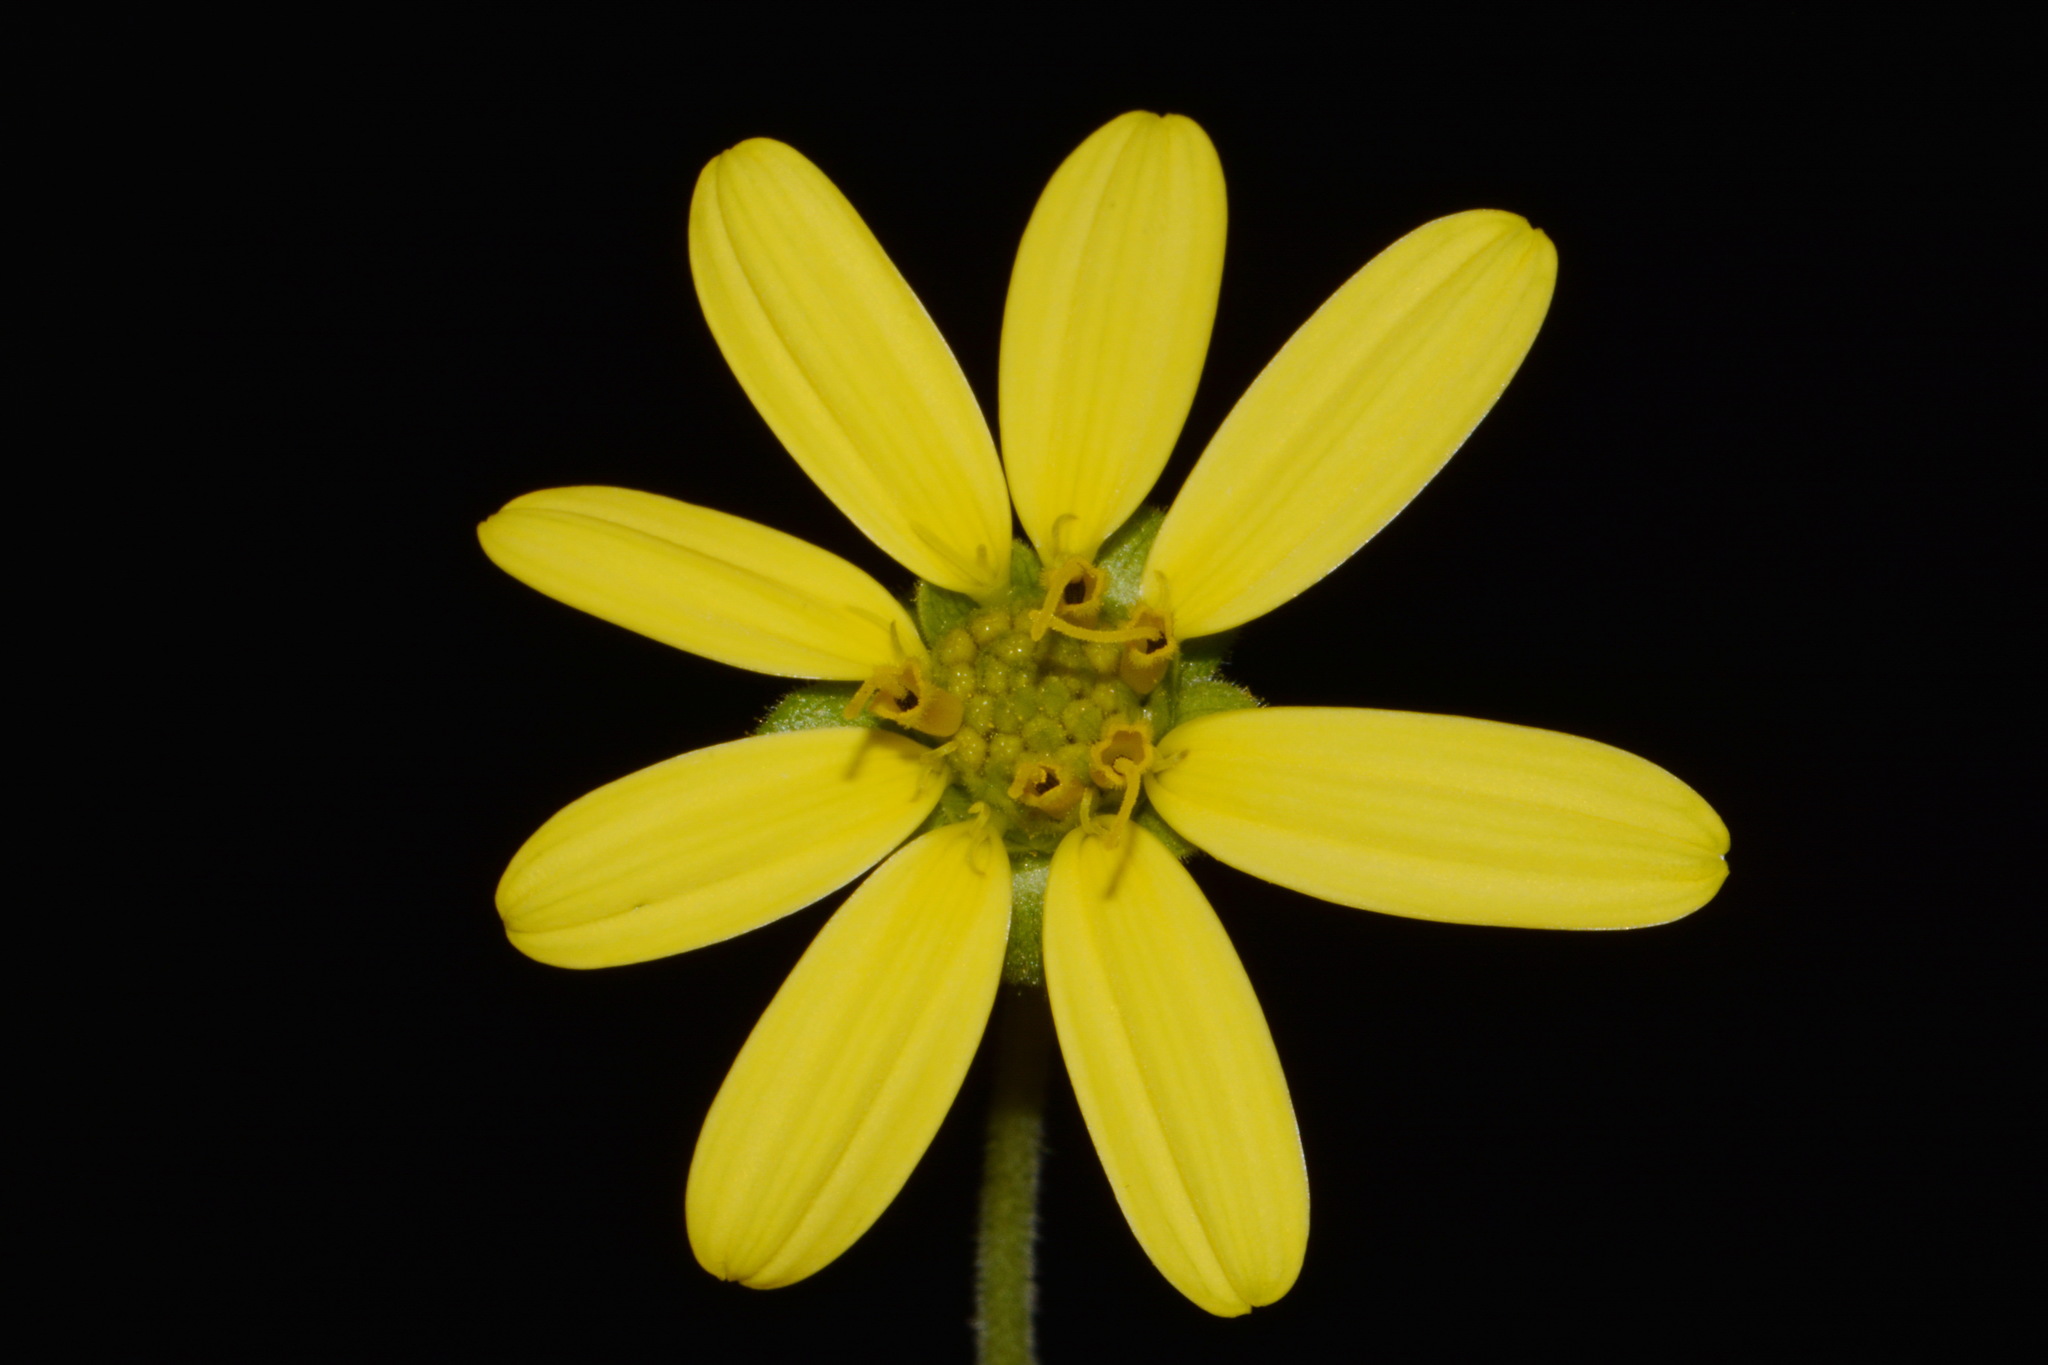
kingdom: Plantae
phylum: Tracheophyta
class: Magnoliopsida
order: Asterales
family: Asteraceae
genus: Silphium
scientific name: Silphium glutinosum
